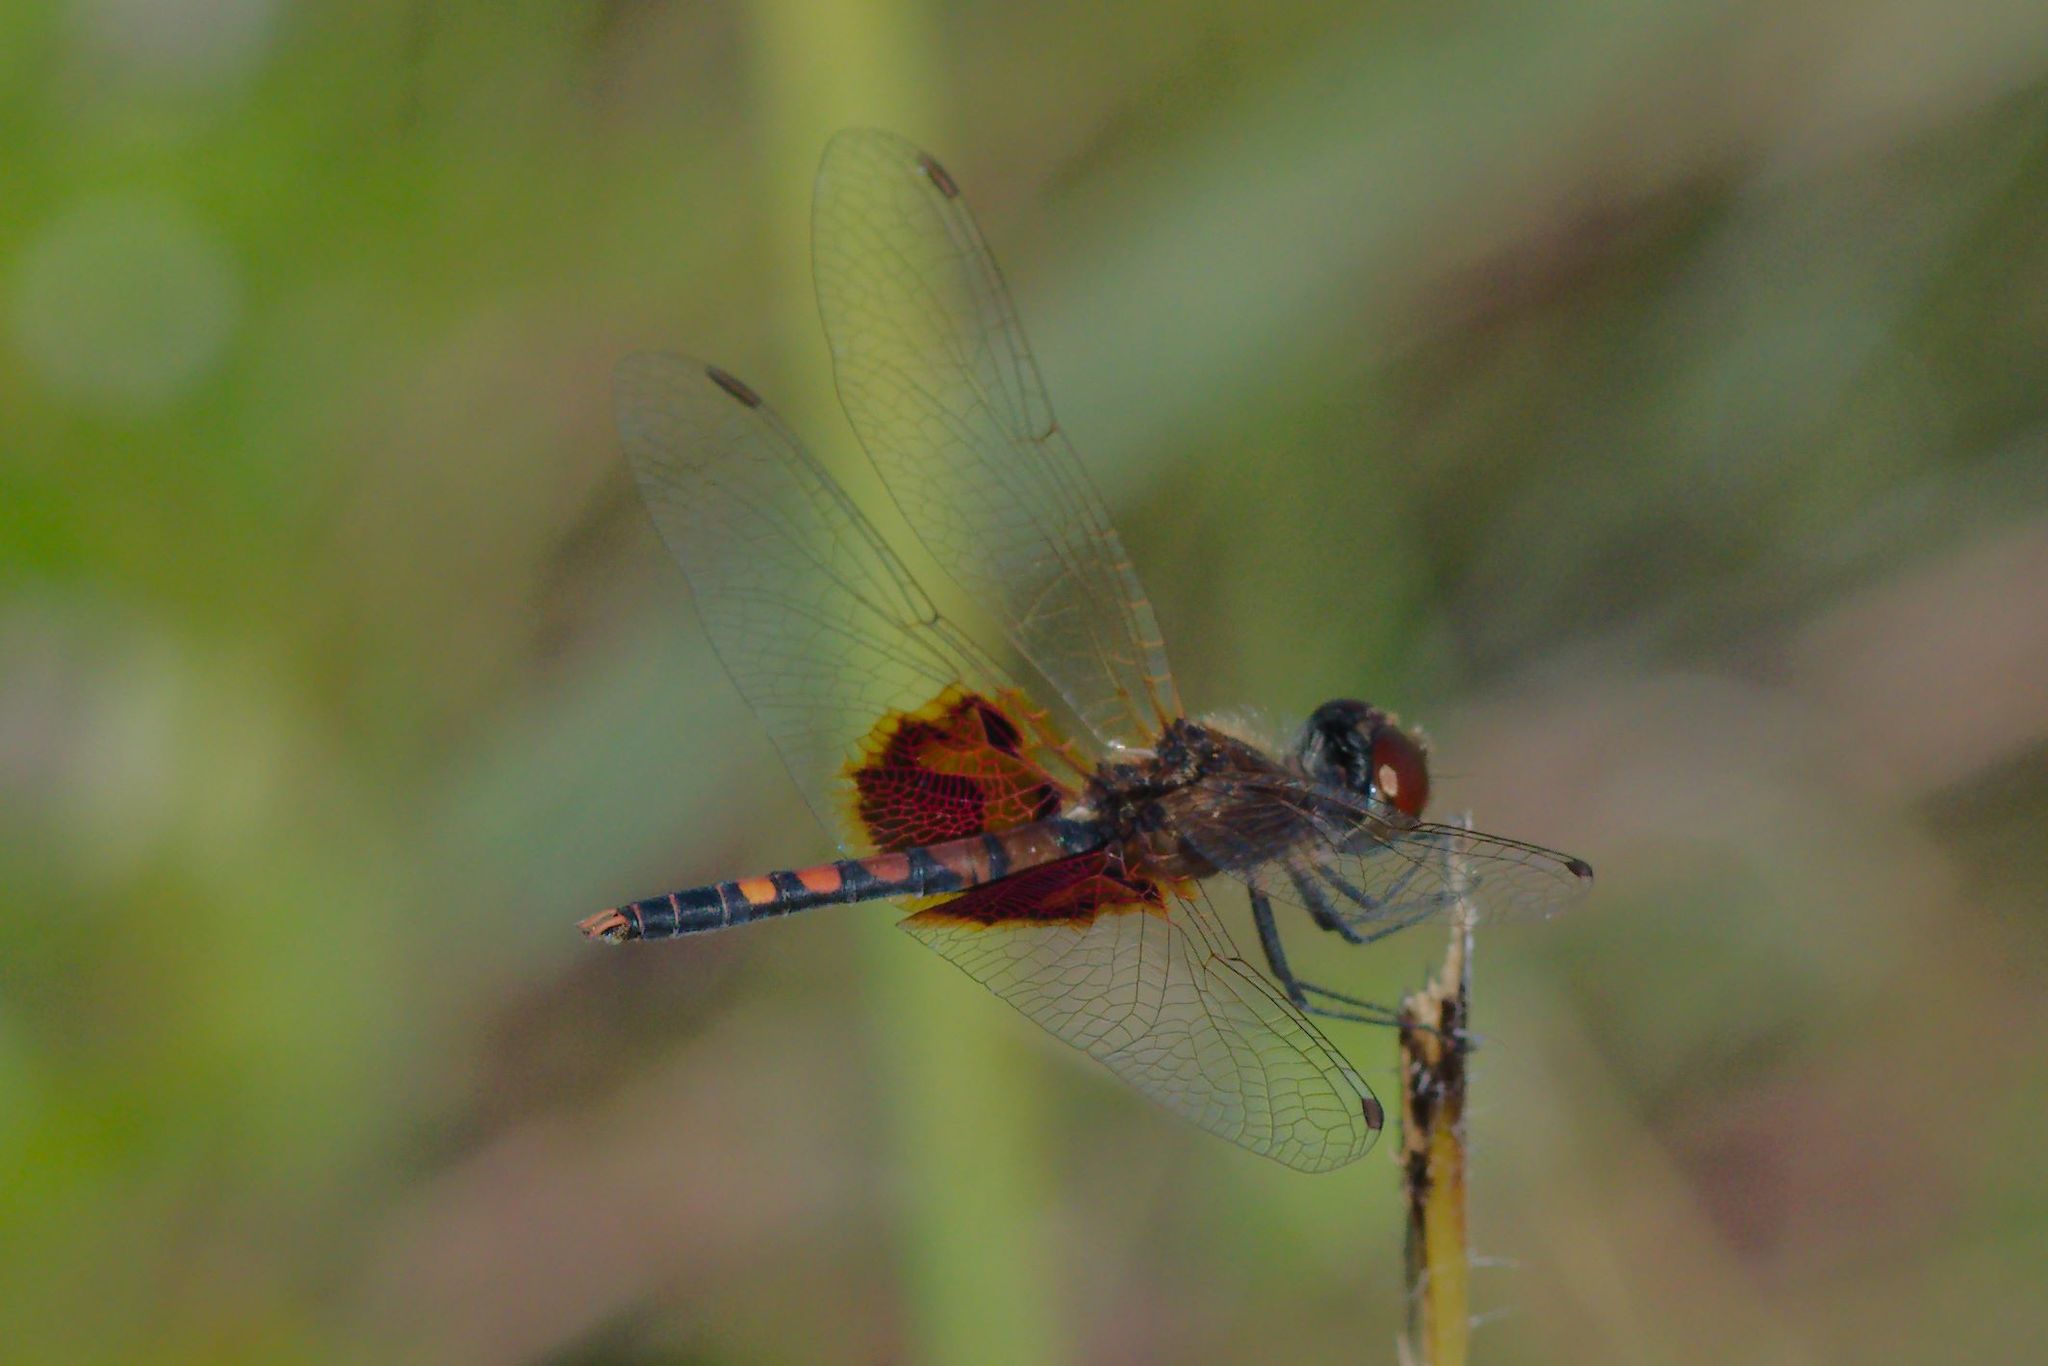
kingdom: Animalia
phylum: Arthropoda
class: Insecta
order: Odonata
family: Libellulidae
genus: Celithemis
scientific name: Celithemis amanda
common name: Amanda's pennant
